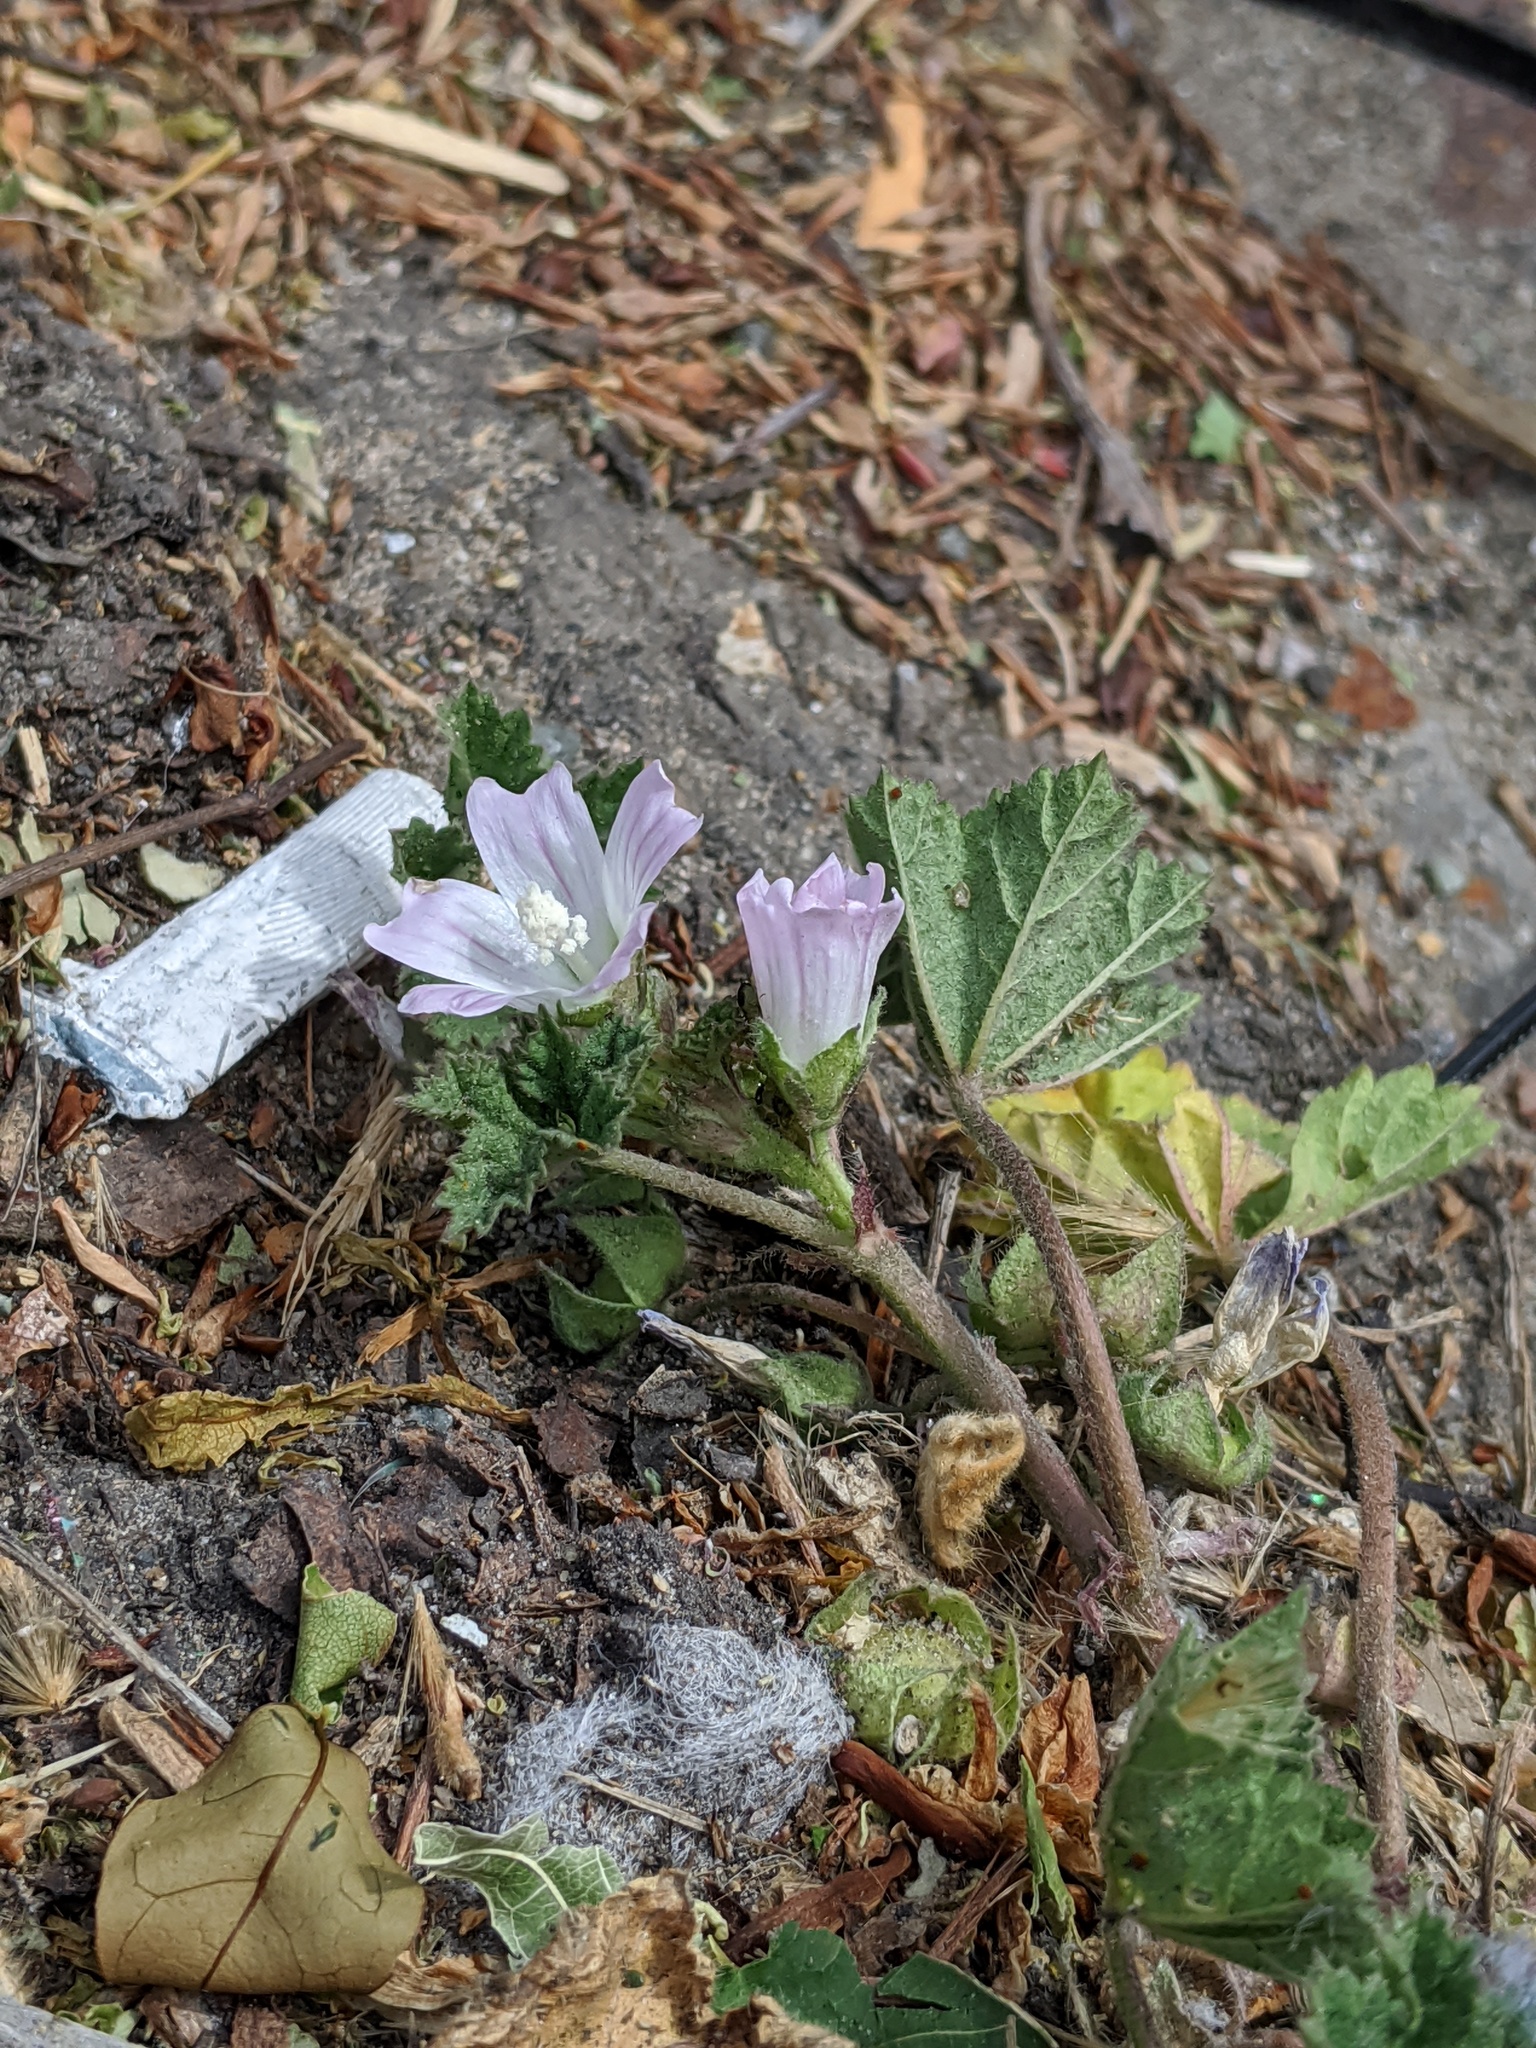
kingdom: Plantae
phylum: Tracheophyta
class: Magnoliopsida
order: Malvales
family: Malvaceae
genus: Malva
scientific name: Malva neglecta
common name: Common mallow
